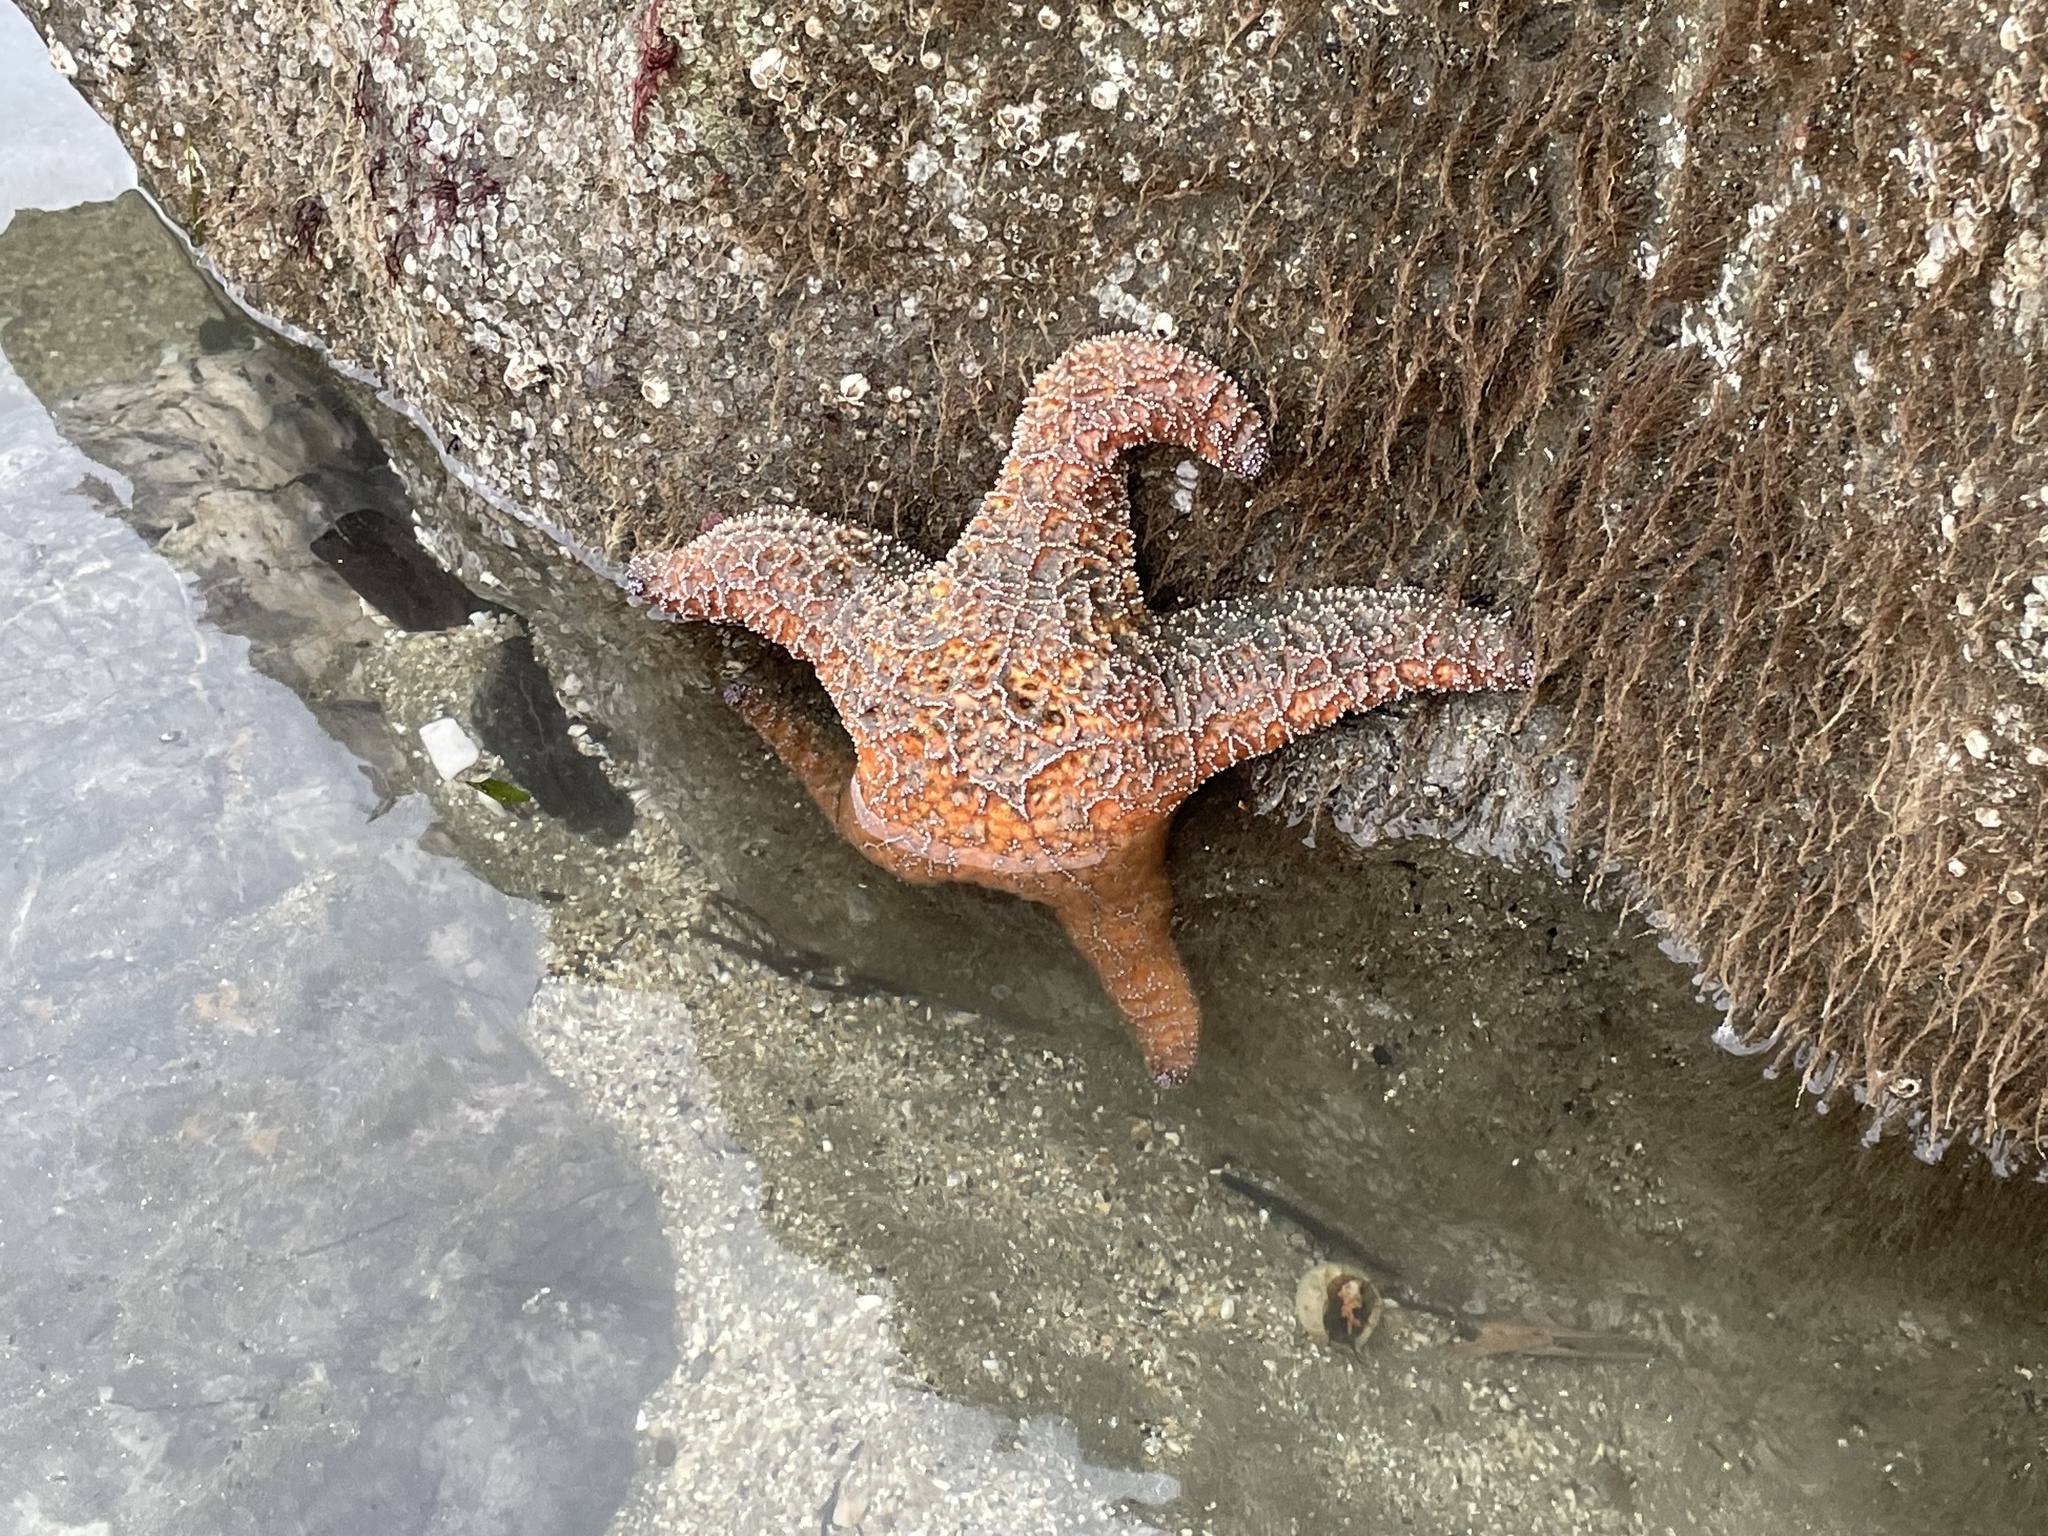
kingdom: Animalia
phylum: Echinodermata
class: Asteroidea
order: Forcipulatida
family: Asteriidae
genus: Pisaster
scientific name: Pisaster ochraceus
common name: Ochre stars
